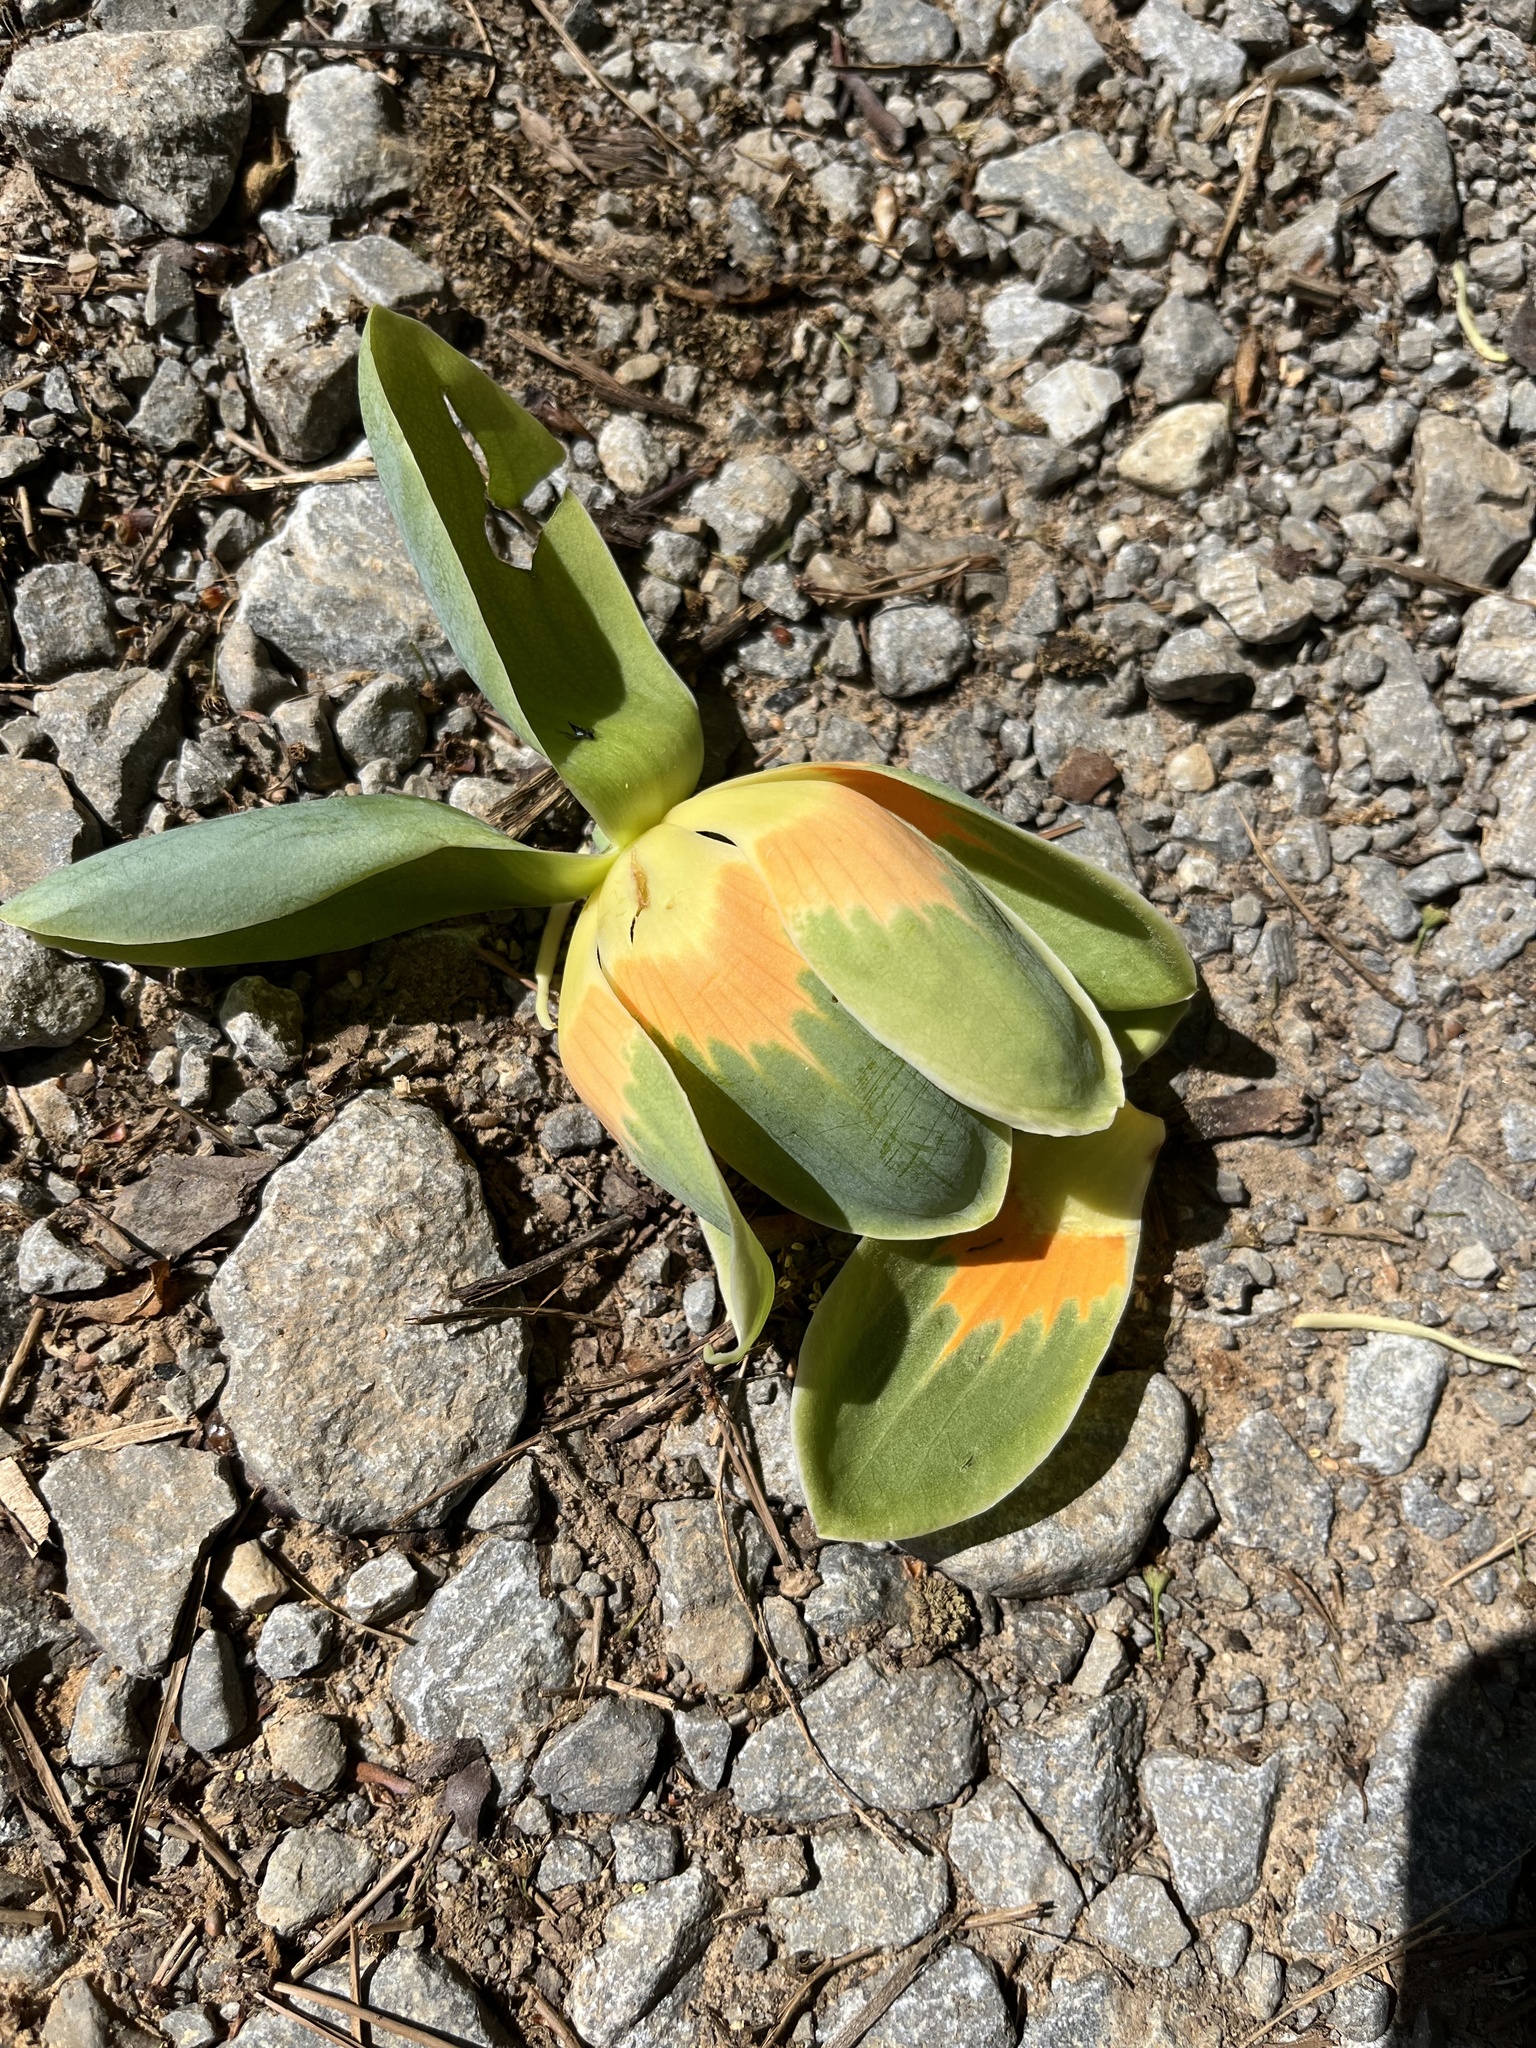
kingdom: Plantae
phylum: Tracheophyta
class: Magnoliopsida
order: Magnoliales
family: Magnoliaceae
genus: Liriodendron
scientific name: Liriodendron tulipifera
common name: Tulip tree
